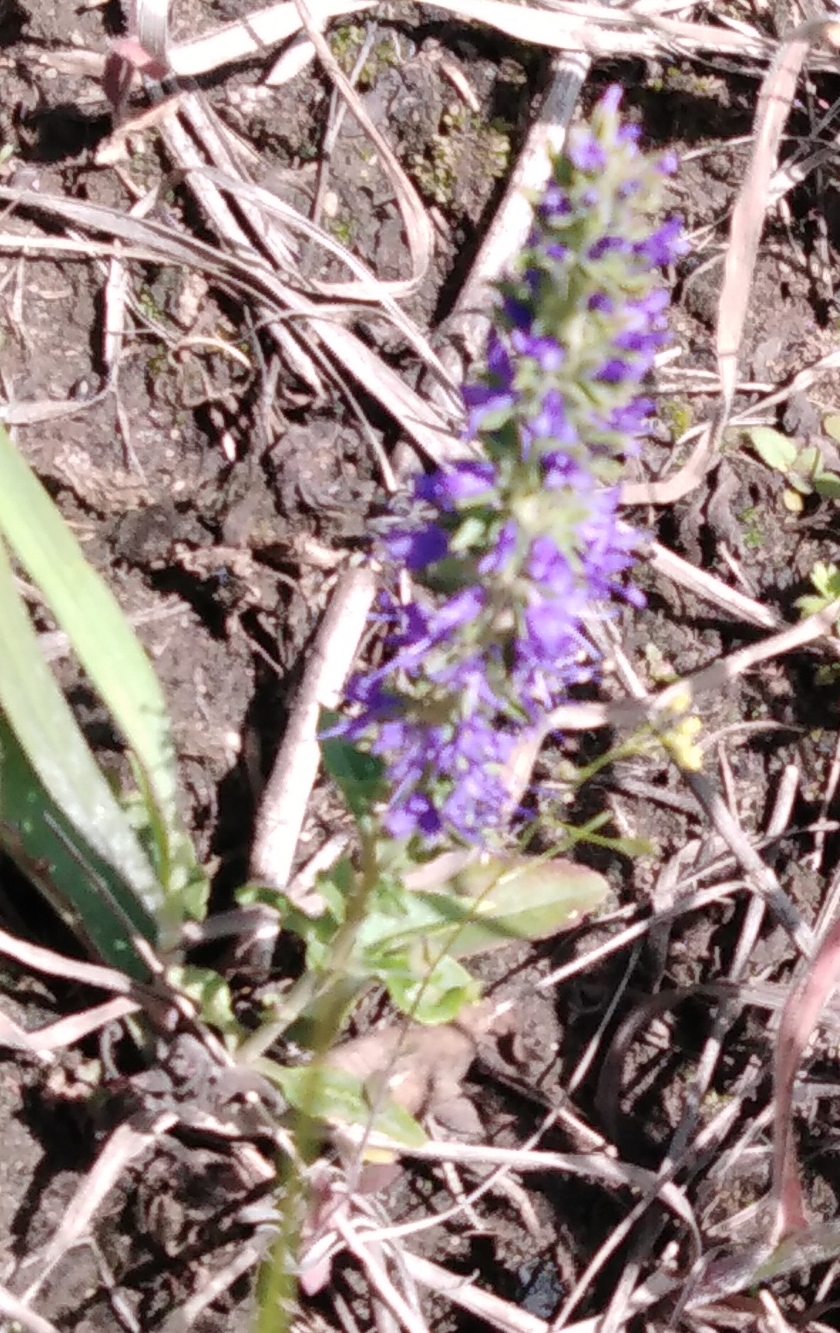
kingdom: Plantae
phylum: Tracheophyta
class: Magnoliopsida
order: Lamiales
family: Lamiaceae
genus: Ajuga
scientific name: Ajuga genevensis
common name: Blue bugle
